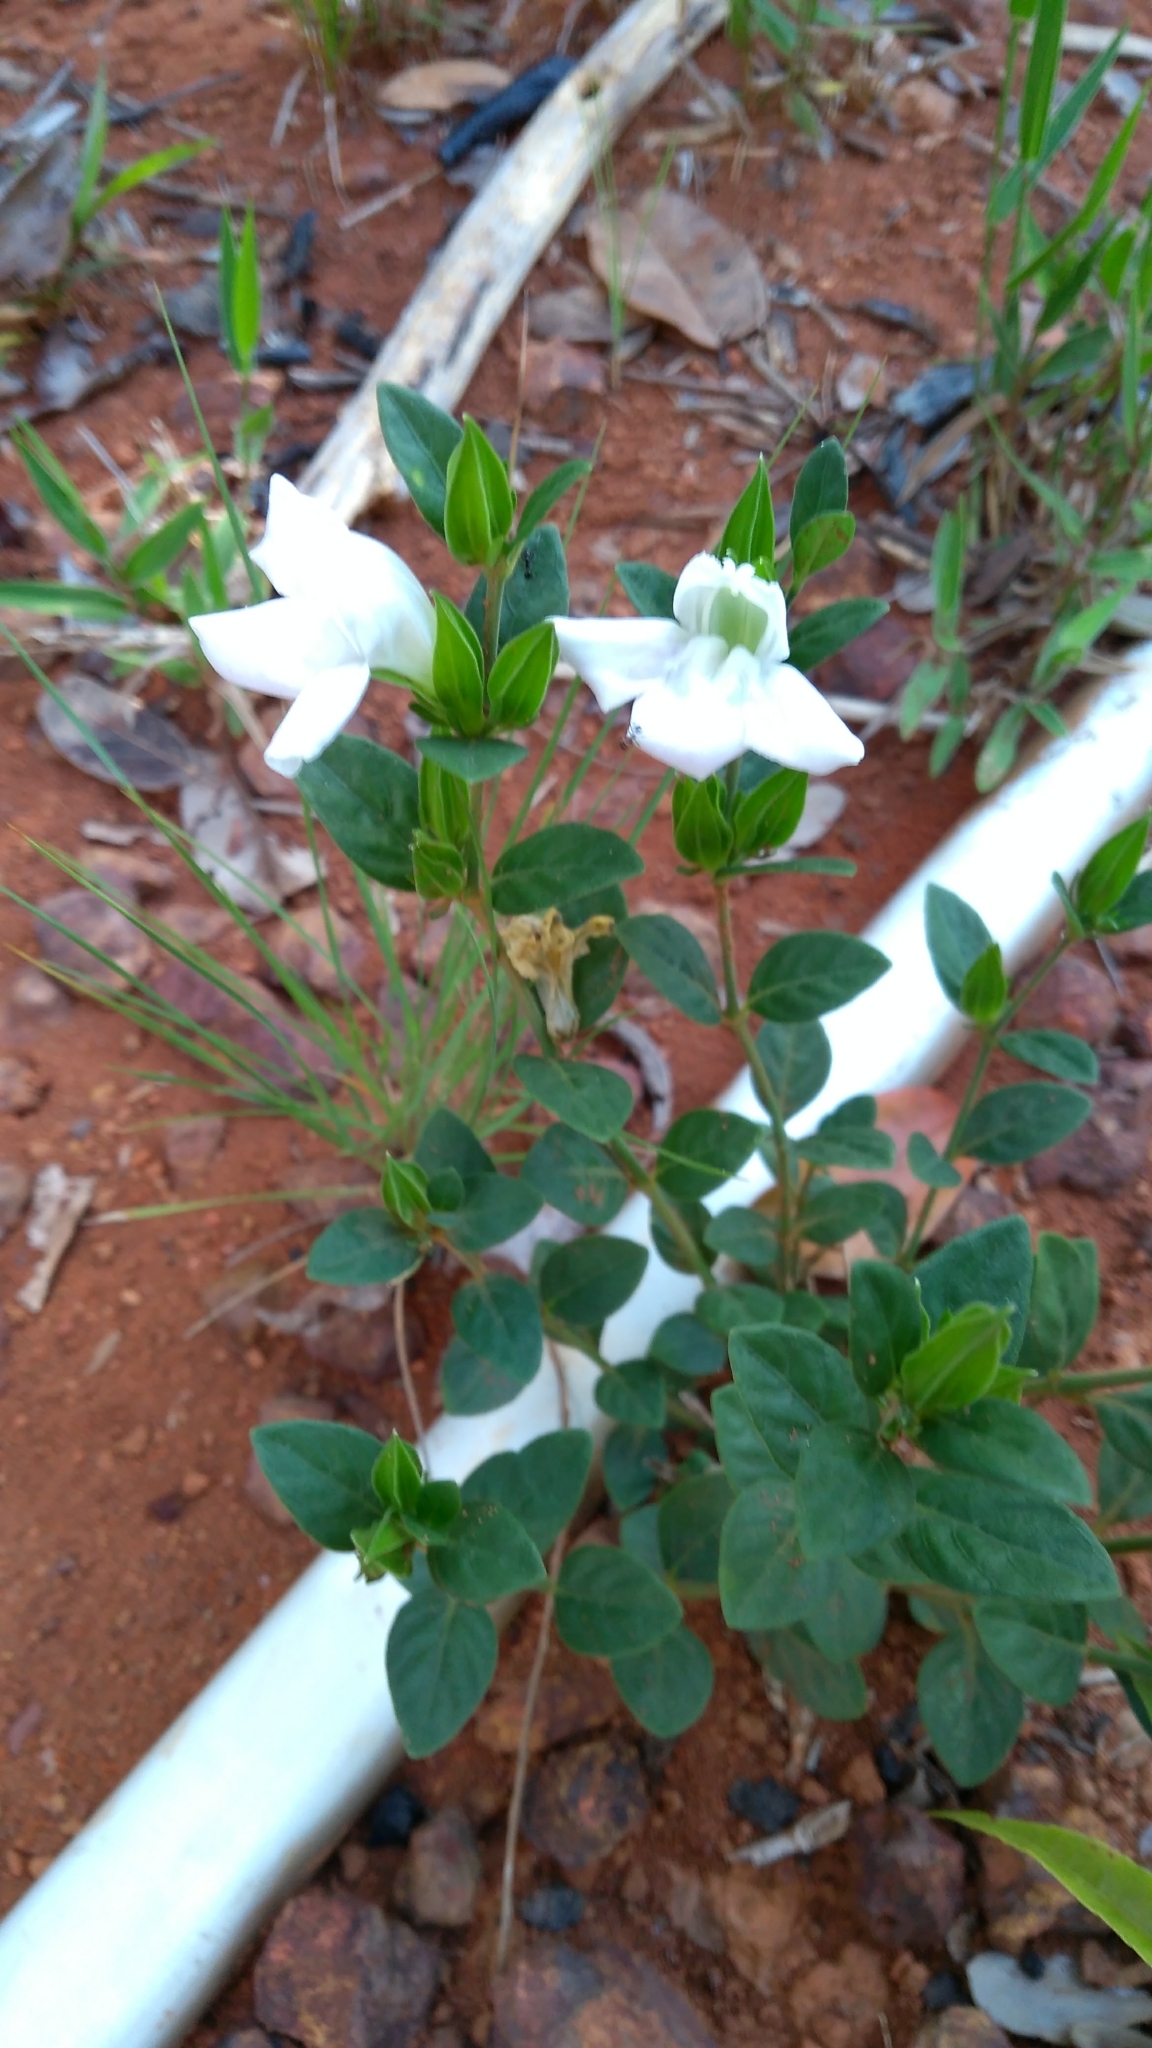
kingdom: Plantae
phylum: Tracheophyta
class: Magnoliopsida
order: Lamiales
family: Acanthaceae
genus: Justicia
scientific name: Justicia oncodes
